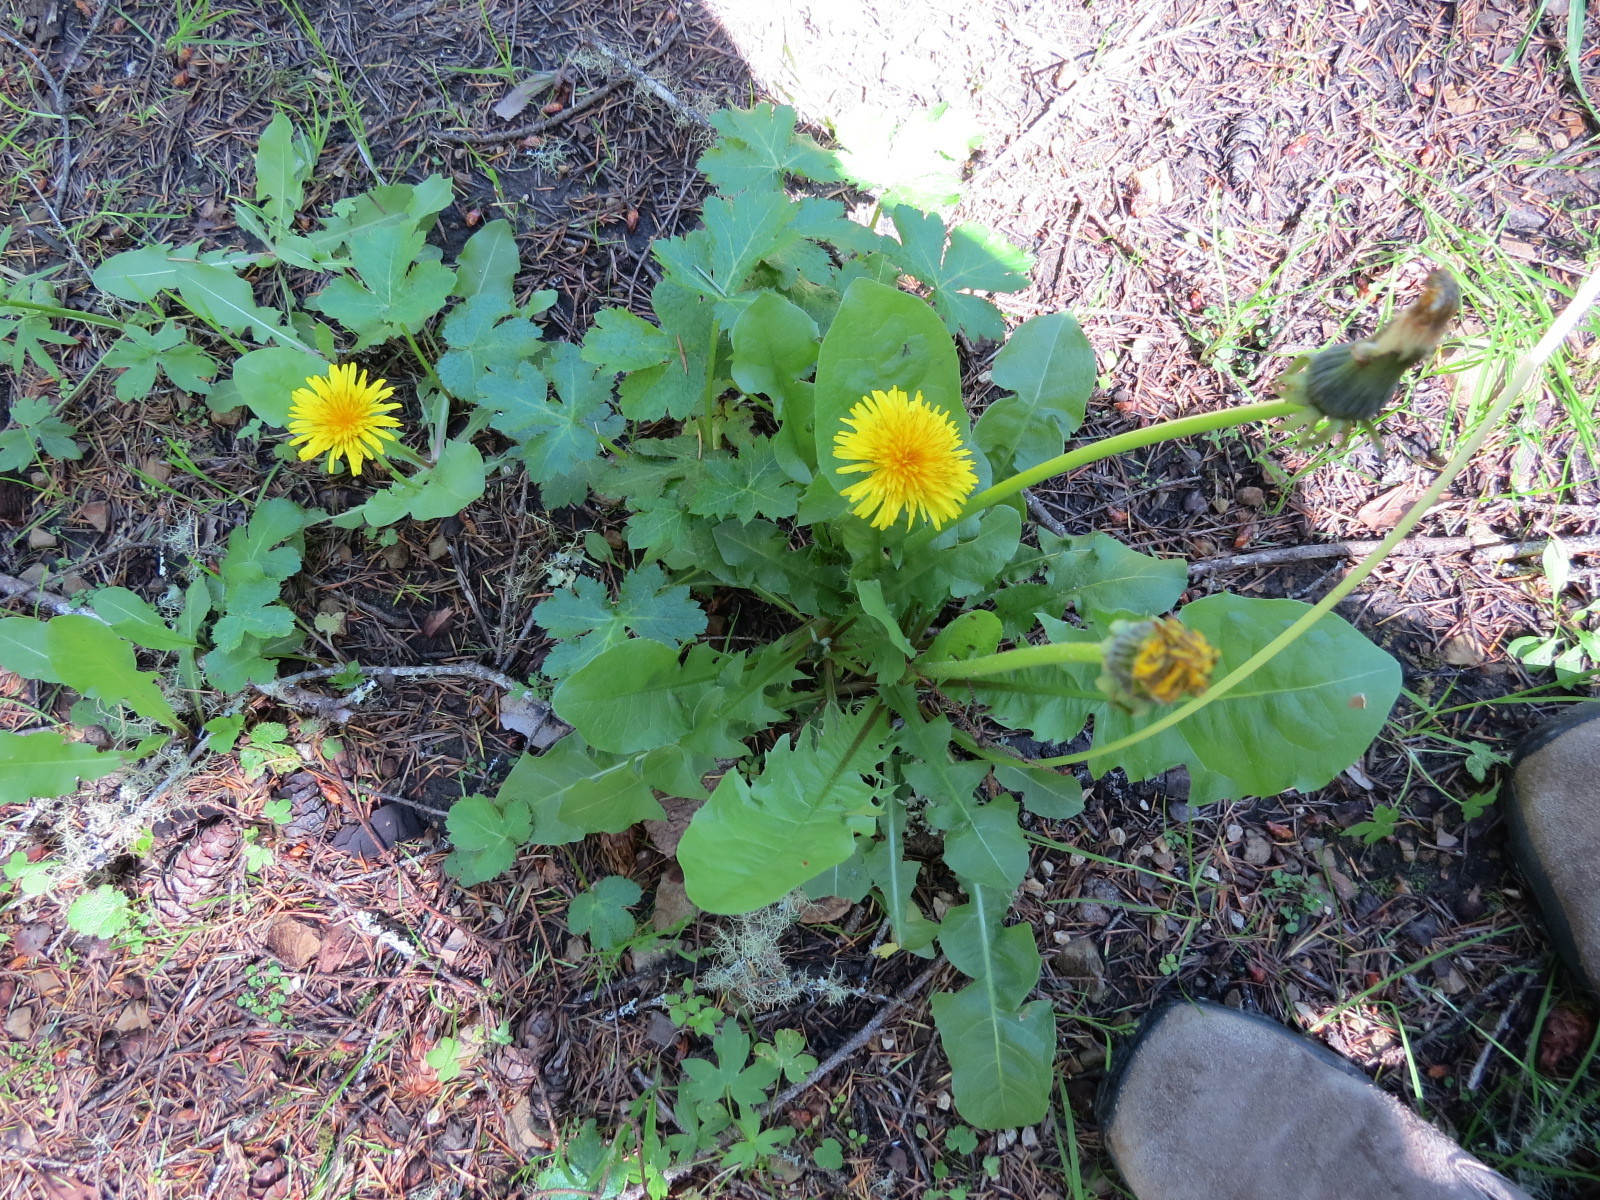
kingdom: Plantae
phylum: Tracheophyta
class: Magnoliopsida
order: Asterales
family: Asteraceae
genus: Taraxacum
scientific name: Taraxacum officinale
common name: Common dandelion
